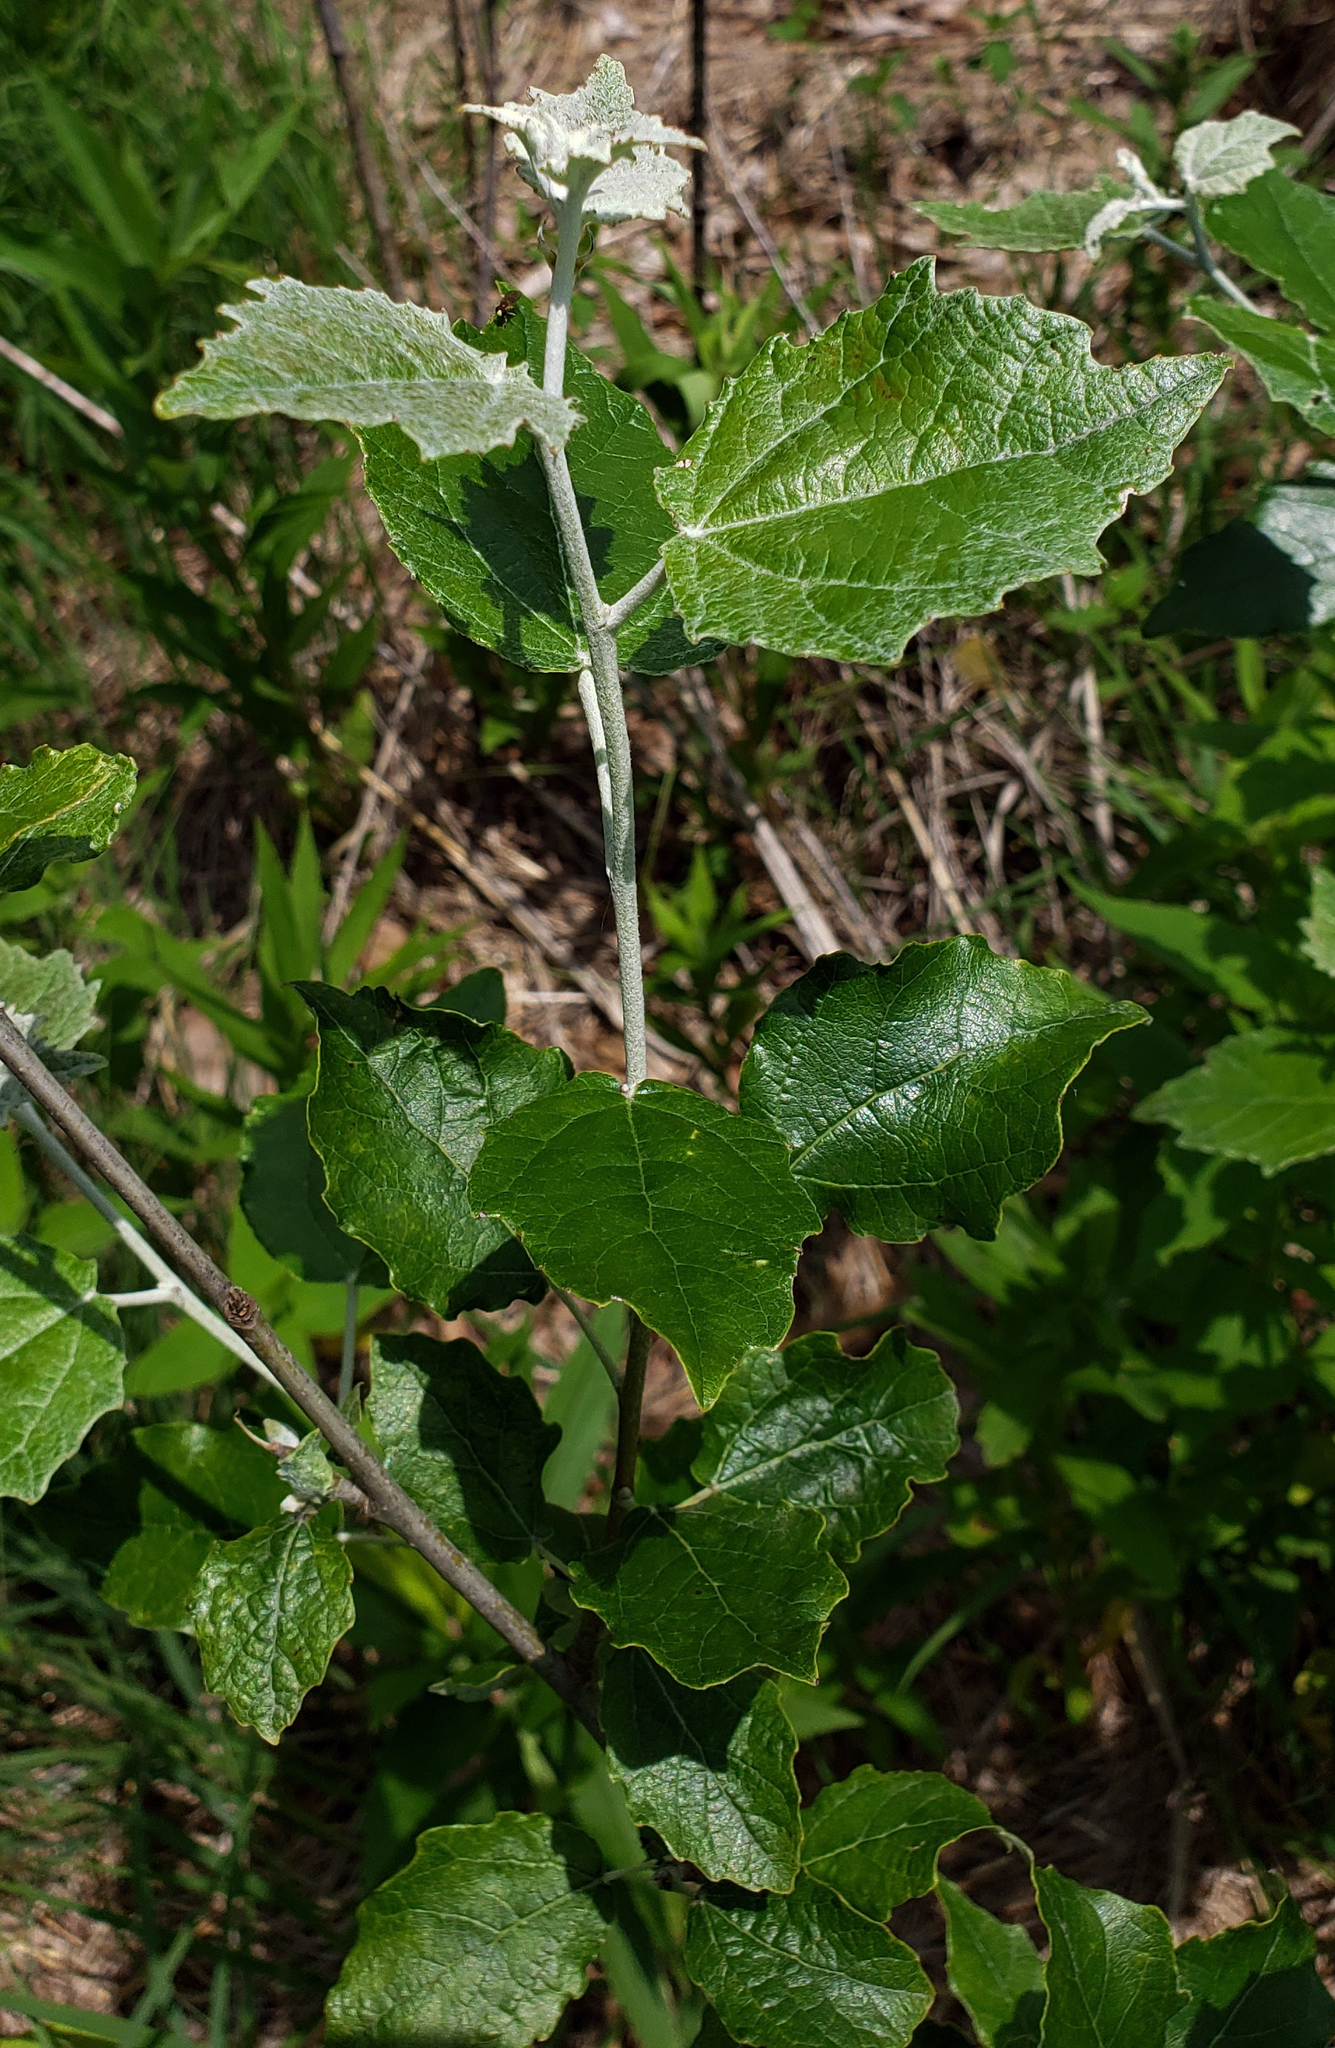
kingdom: Plantae
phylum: Tracheophyta
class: Magnoliopsida
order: Malpighiales
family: Salicaceae
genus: Populus
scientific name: Populus alba
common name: White poplar
